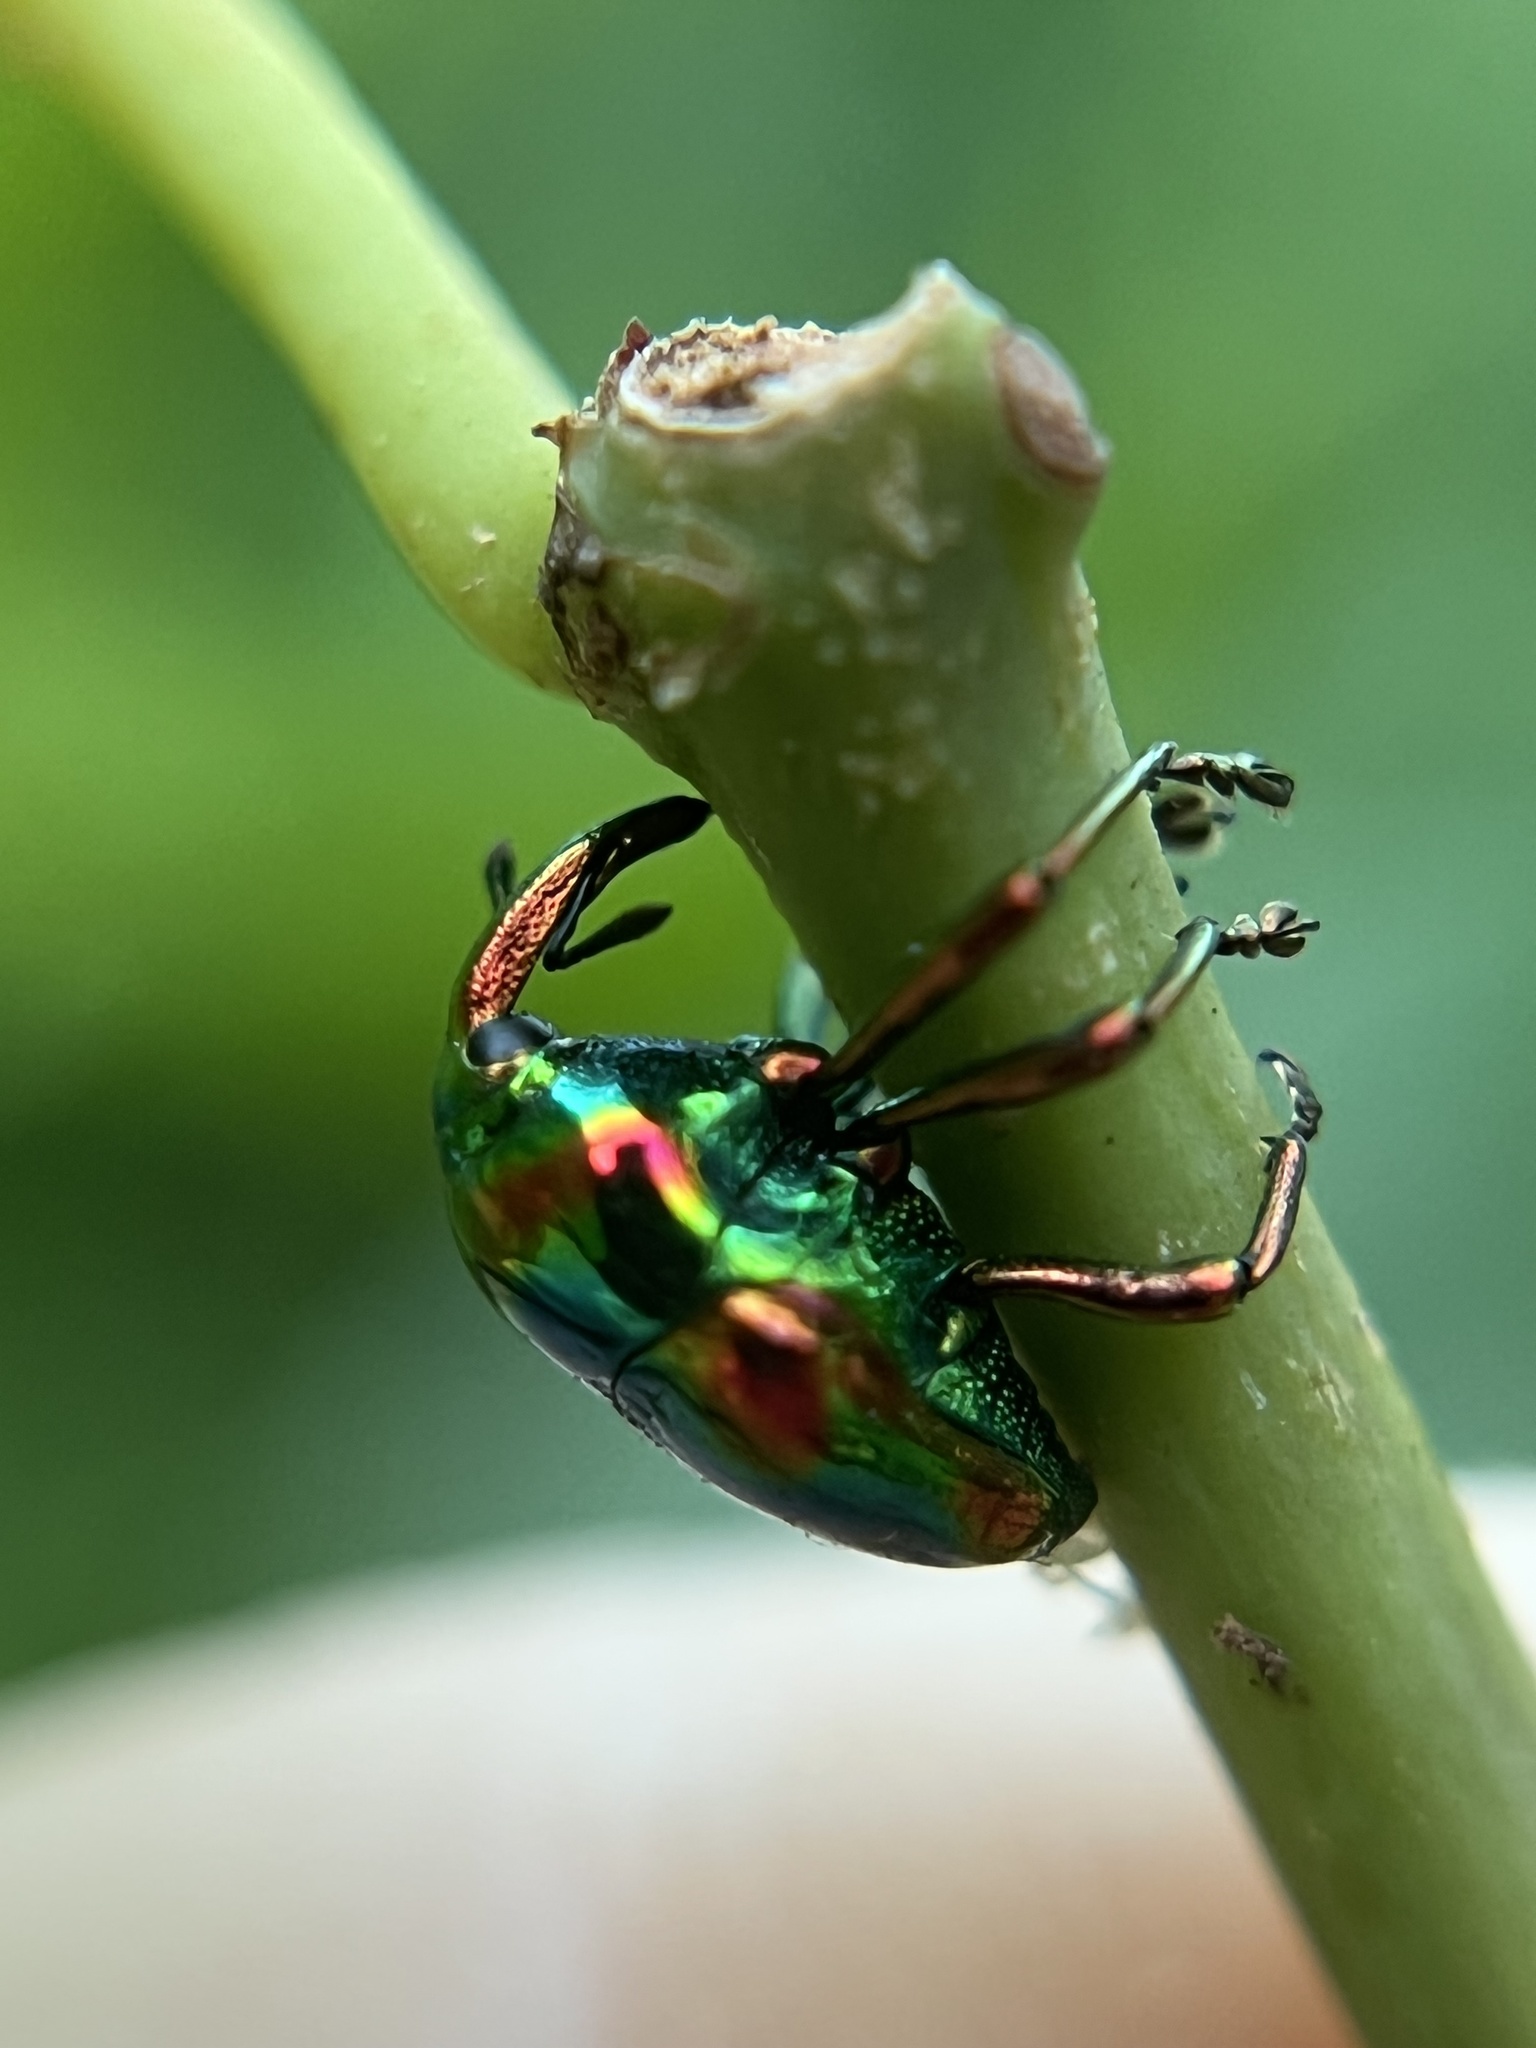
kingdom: Animalia
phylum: Arthropoda
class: Insecta
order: Coleoptera
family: Eurhynchidae
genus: Eurhinus
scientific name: Eurhinus magnificus
